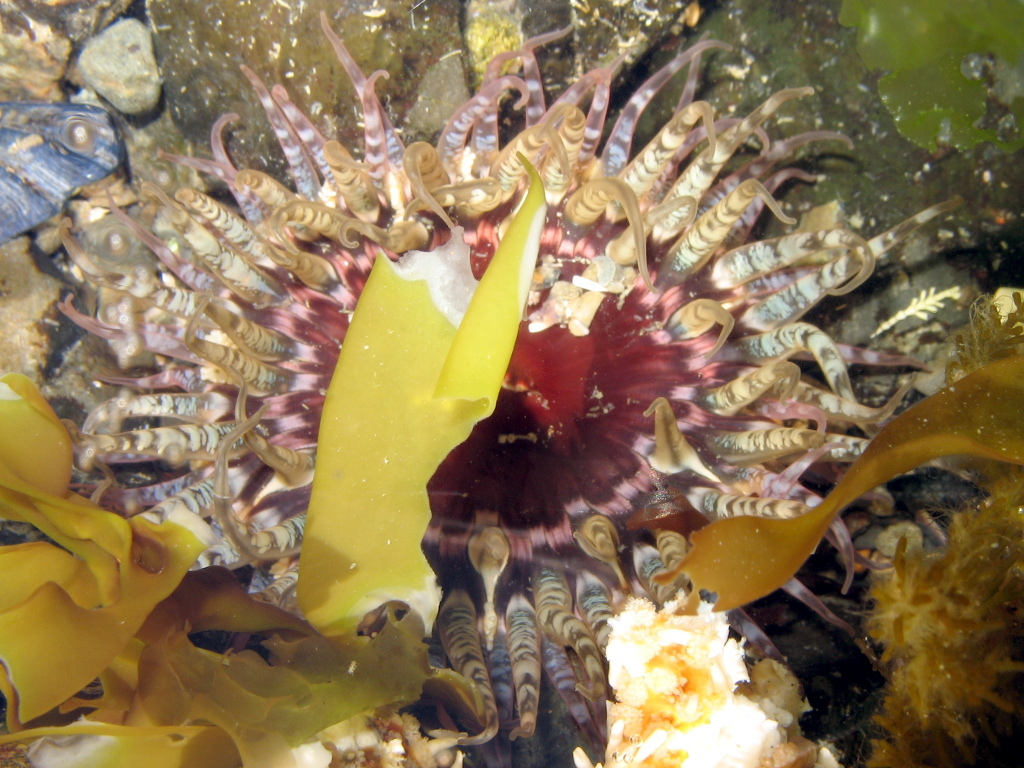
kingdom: Animalia
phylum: Cnidaria
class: Anthozoa
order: Actiniaria
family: Actiniidae
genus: Oulactis
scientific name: Oulactis muscosa
